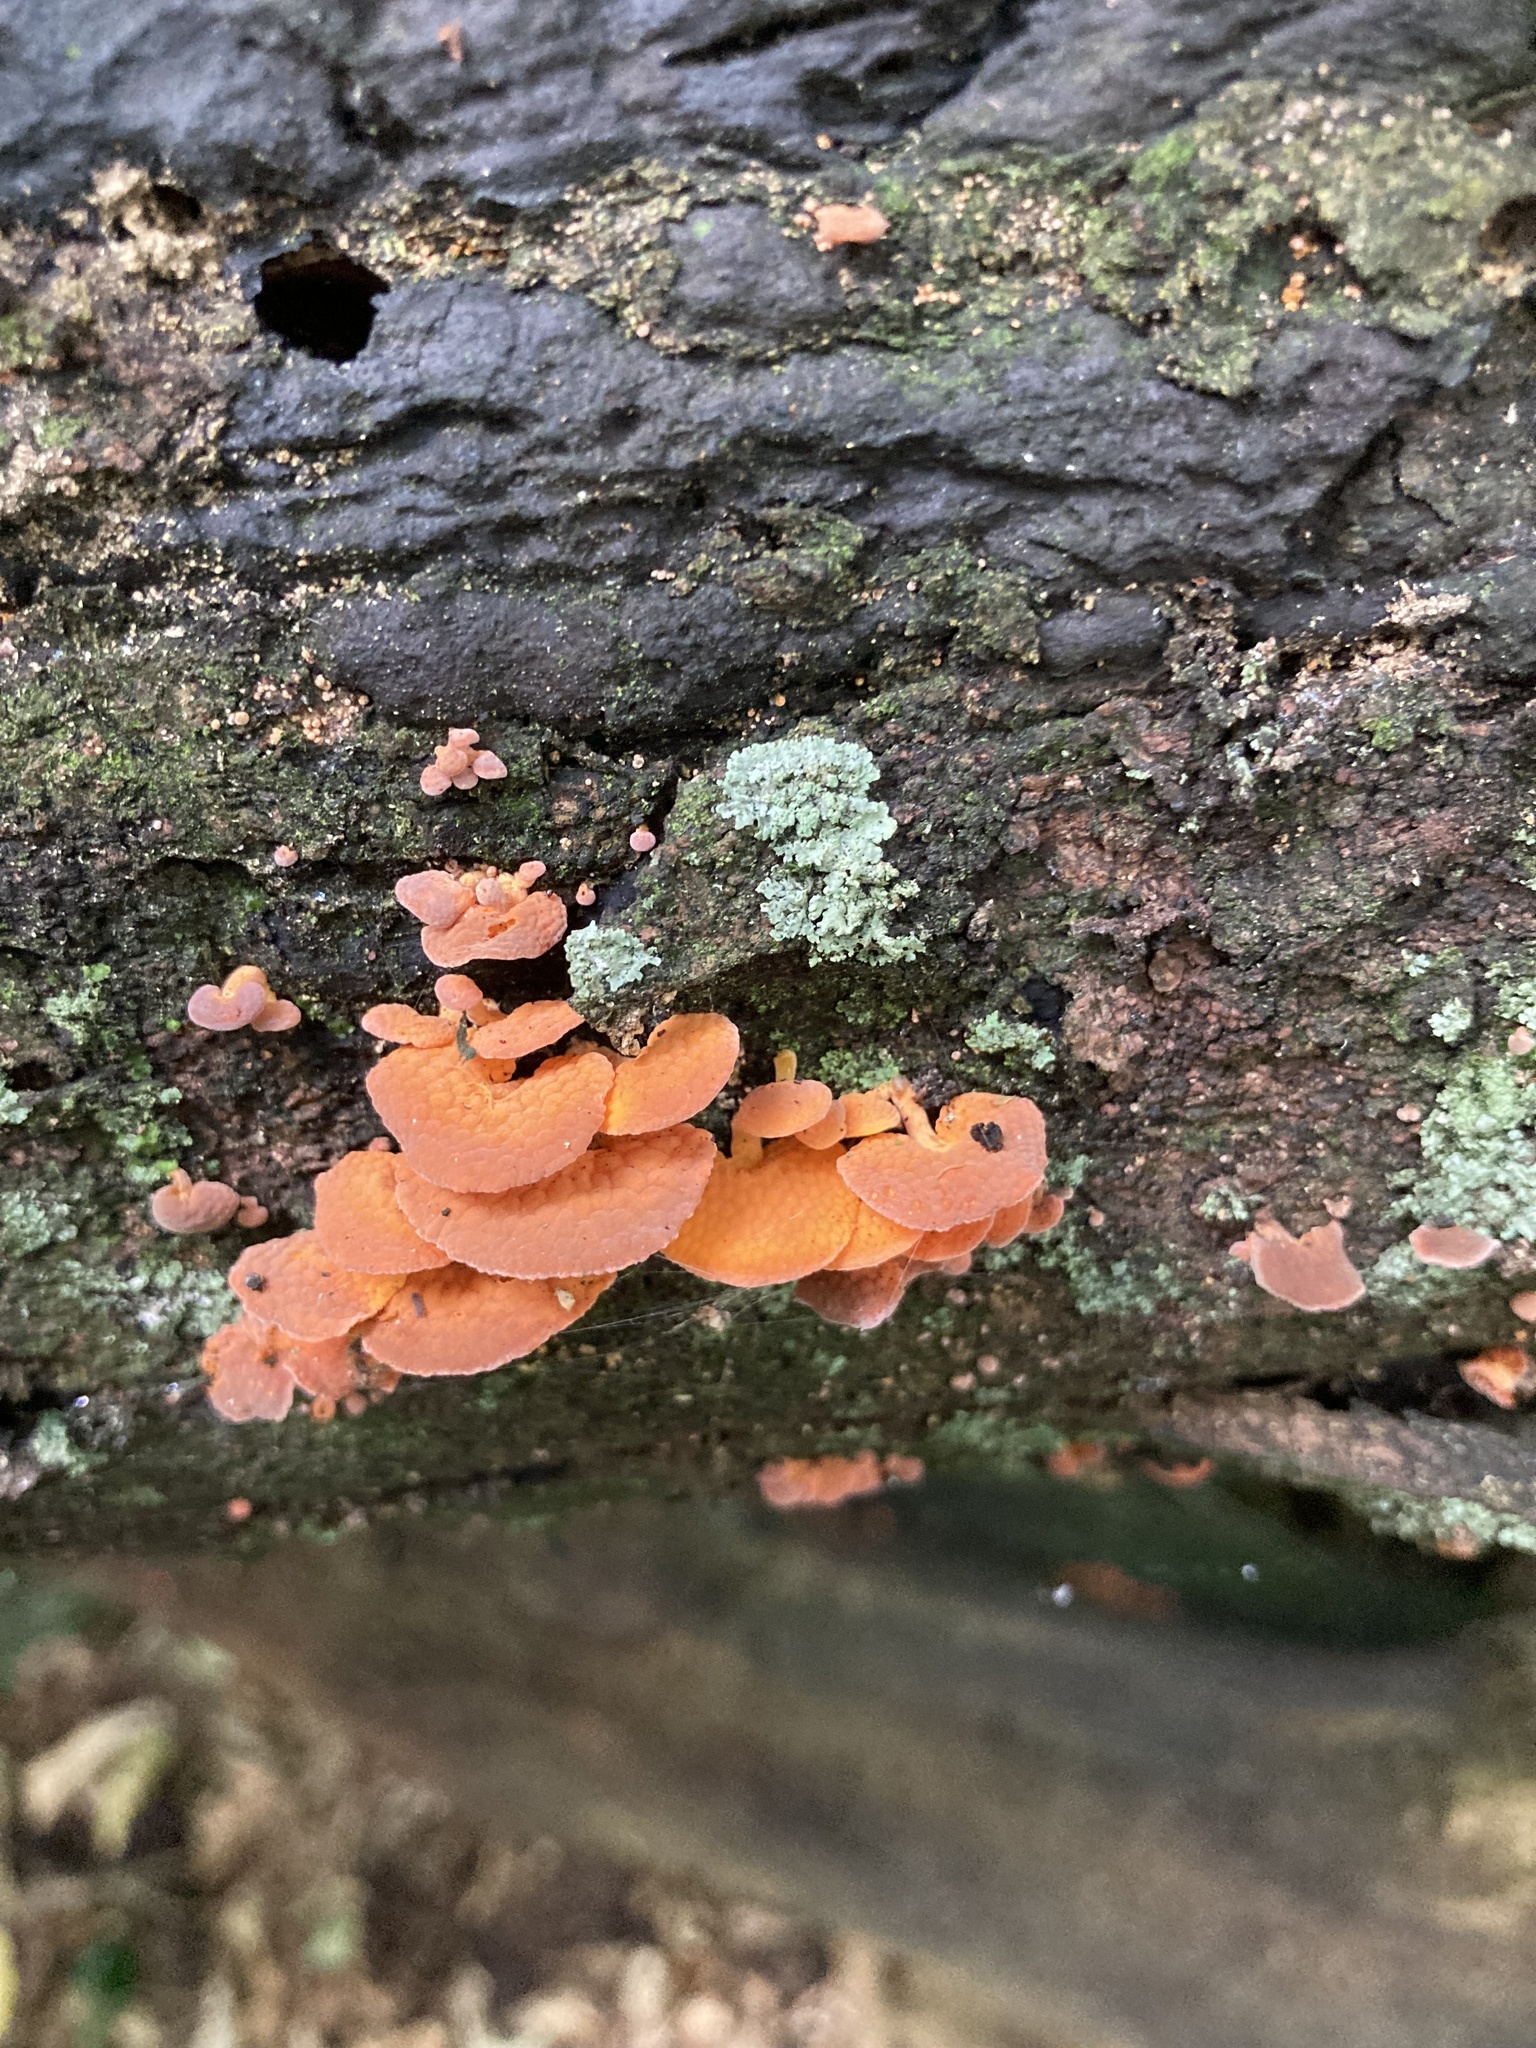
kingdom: Fungi
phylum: Basidiomycota
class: Agaricomycetes
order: Agaricales
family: Mycenaceae
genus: Favolaschia
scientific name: Favolaschia claudopus
